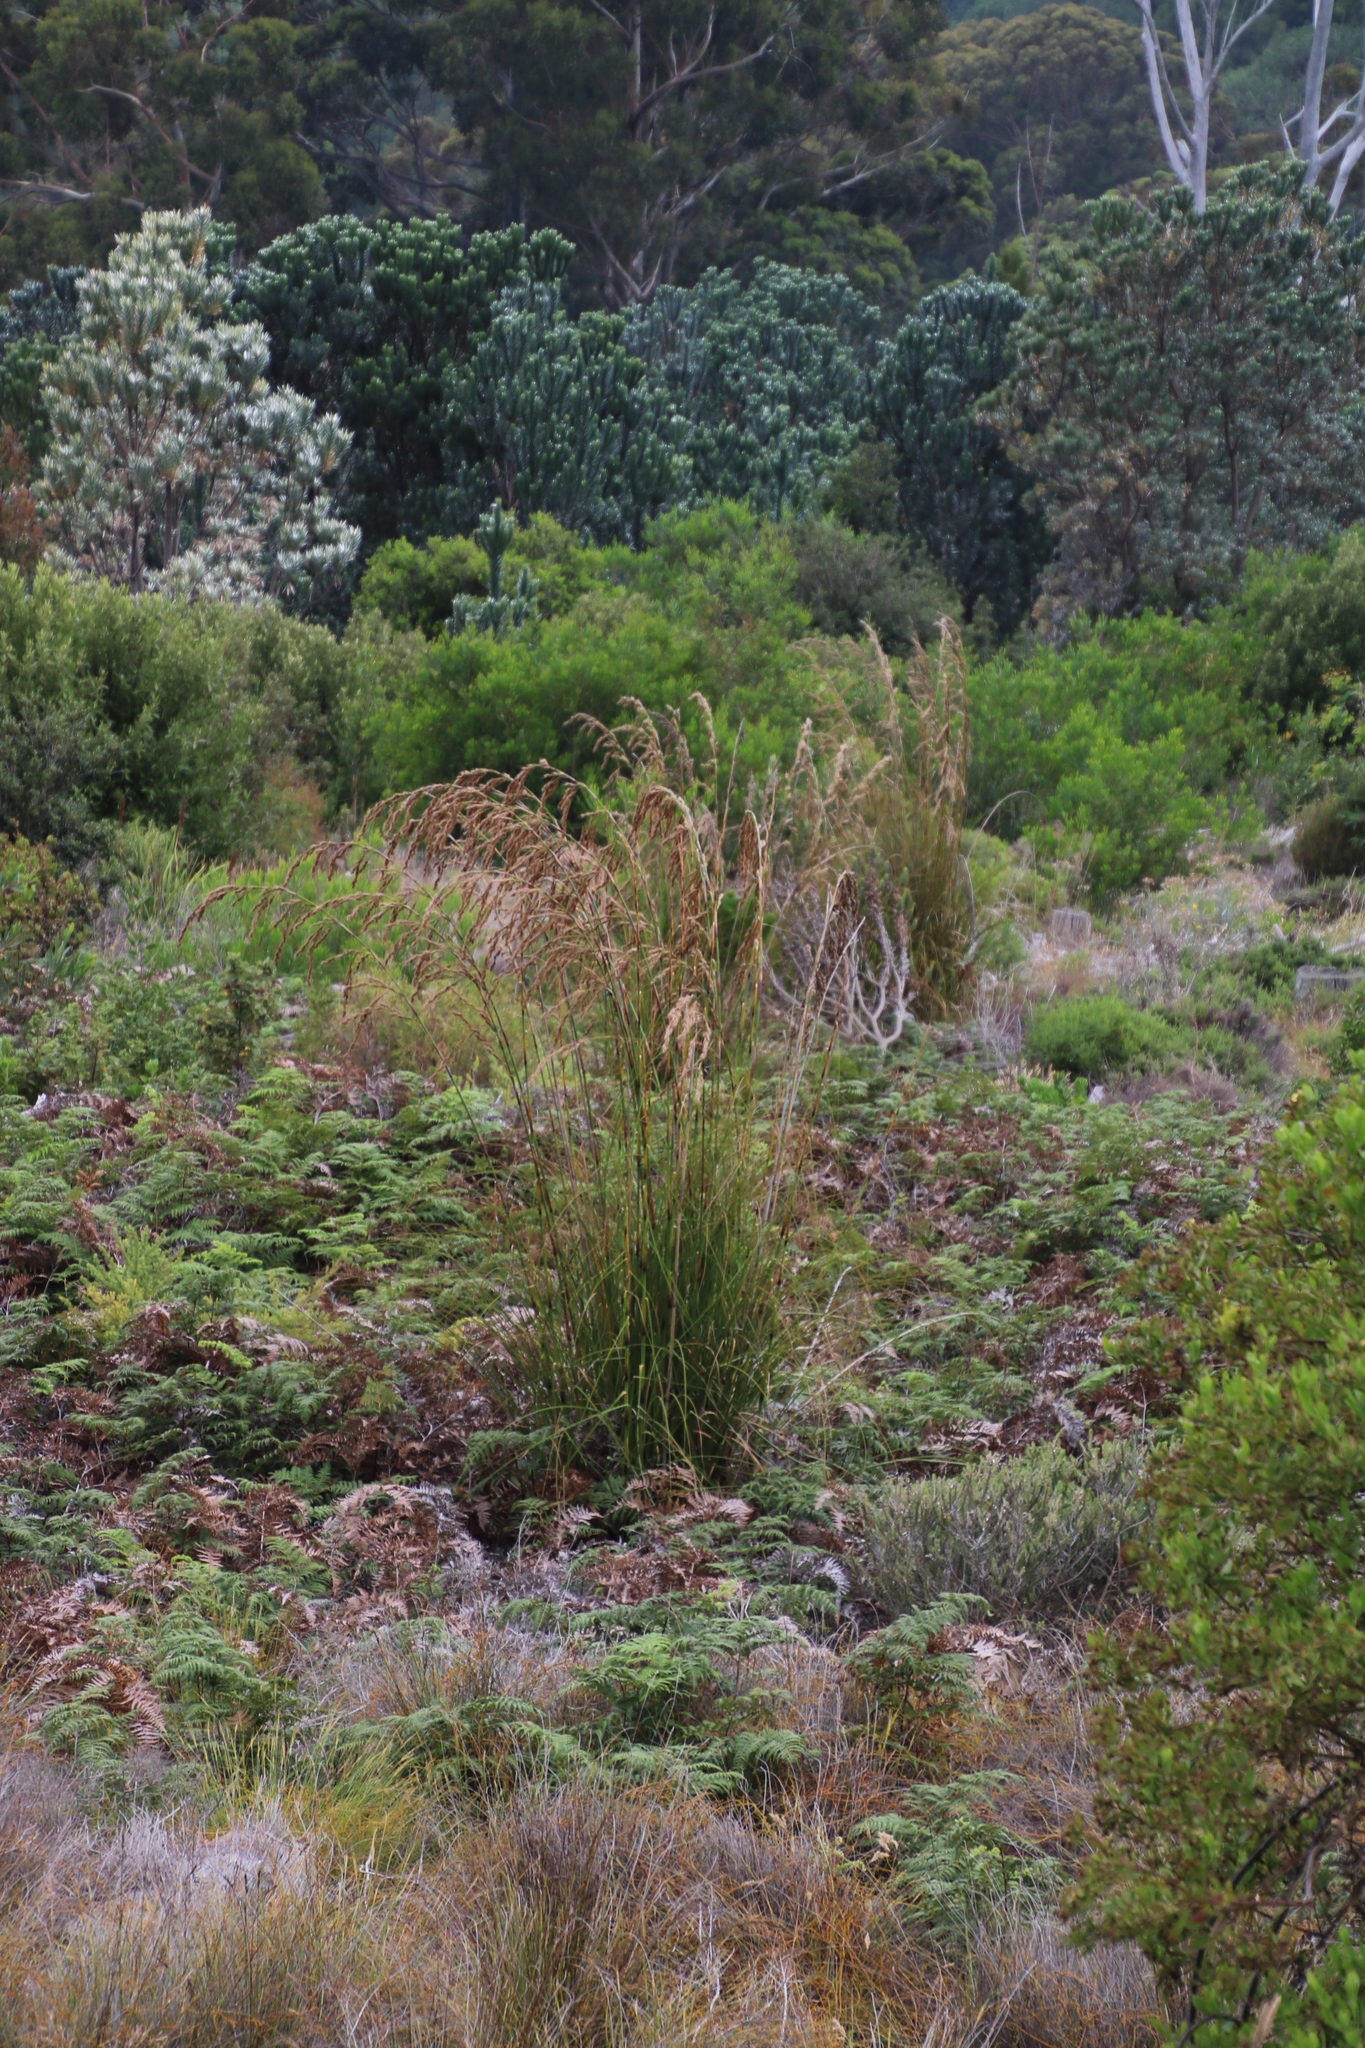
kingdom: Plantae
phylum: Tracheophyta
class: Liliopsida
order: Poales
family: Cyperaceae
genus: Tetraria
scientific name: Tetraria bromoides
